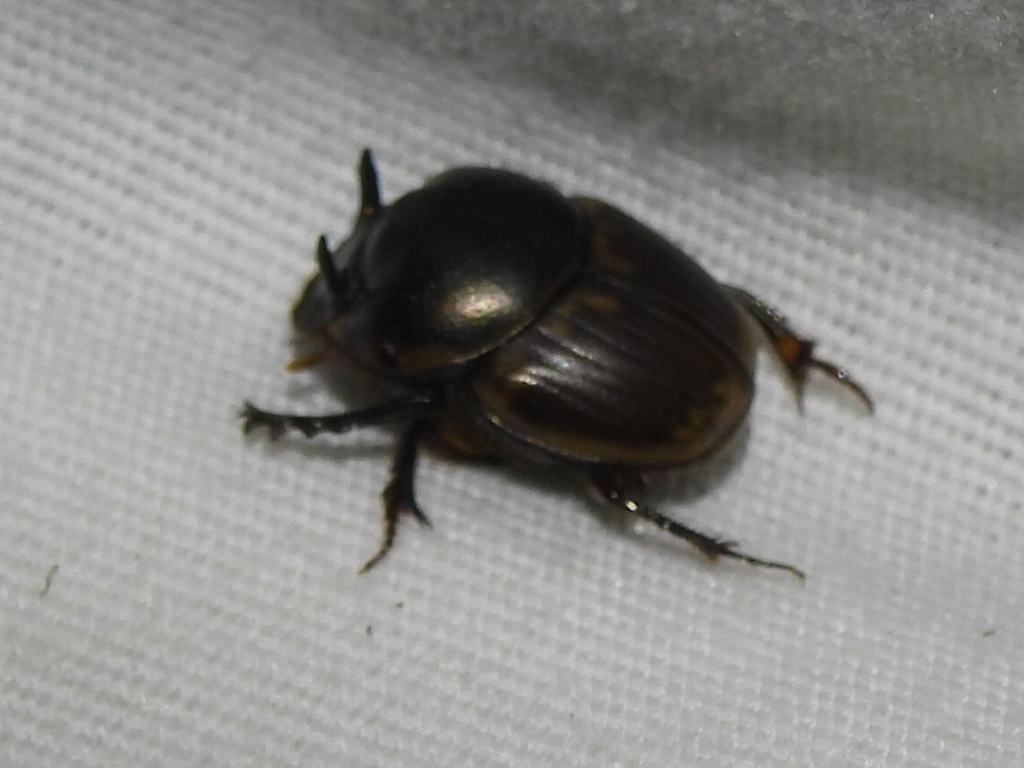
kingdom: Animalia
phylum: Arthropoda
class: Insecta
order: Coleoptera
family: Scarabaeidae
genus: Digitonthophagus
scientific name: Digitonthophagus gazella
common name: Brown dung beetle
